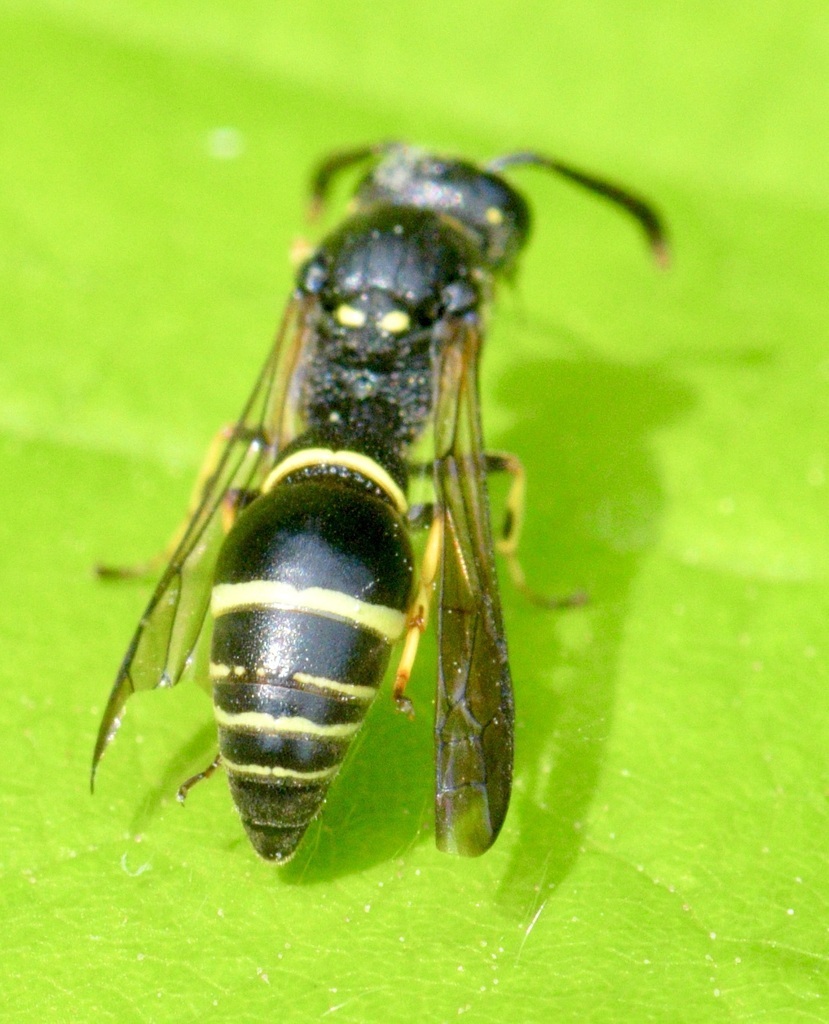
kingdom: Animalia
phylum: Arthropoda
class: Insecta
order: Hymenoptera
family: Eumenidae
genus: Symmorphus
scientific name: Symmorphus
